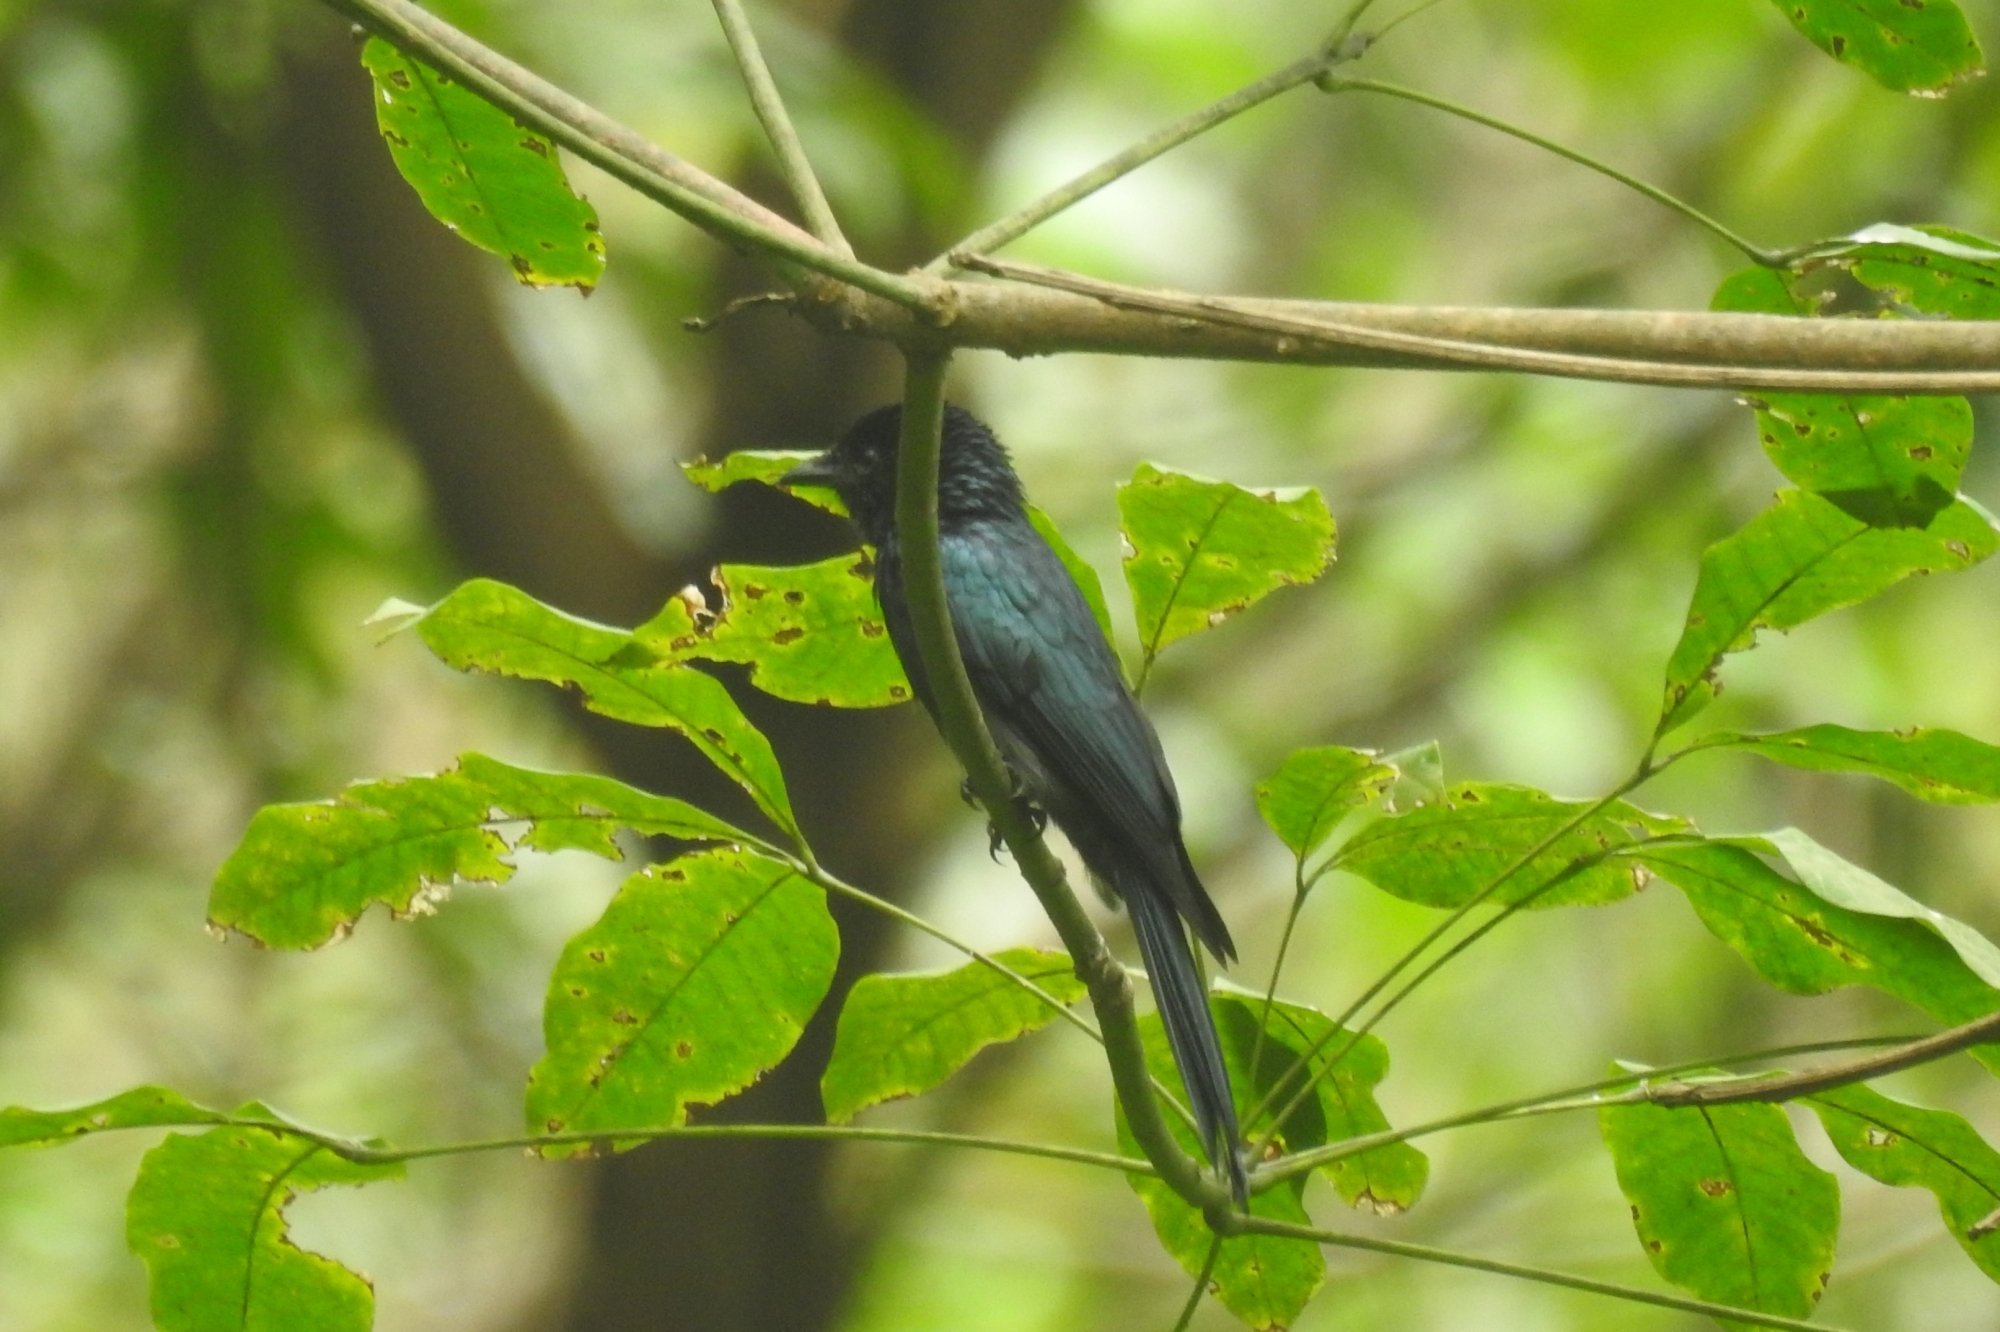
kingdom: Animalia
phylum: Chordata
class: Aves
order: Passeriformes
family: Dicruridae
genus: Dicrurus
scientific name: Dicrurus aeneus
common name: Bronzed drongo
